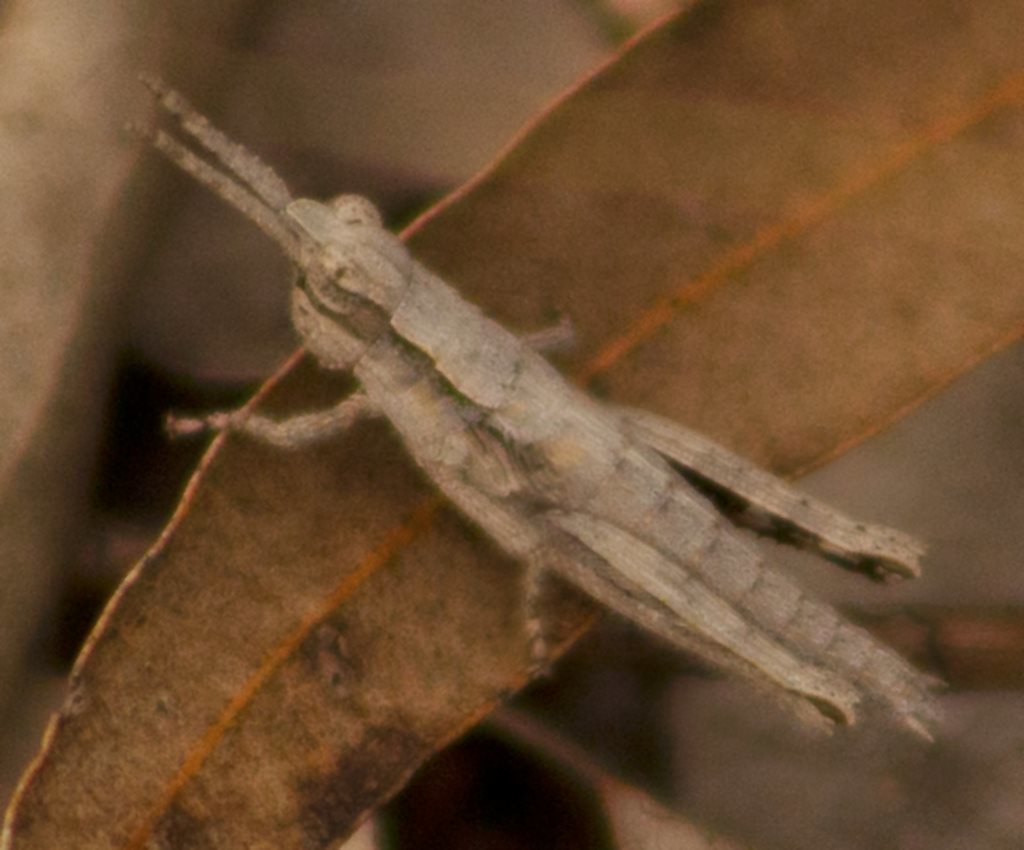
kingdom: Animalia
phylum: Arthropoda
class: Insecta
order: Orthoptera
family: Acrididae
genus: Coryphistes
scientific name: Coryphistes ruricola
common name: Bark-mimicking grasshopper
